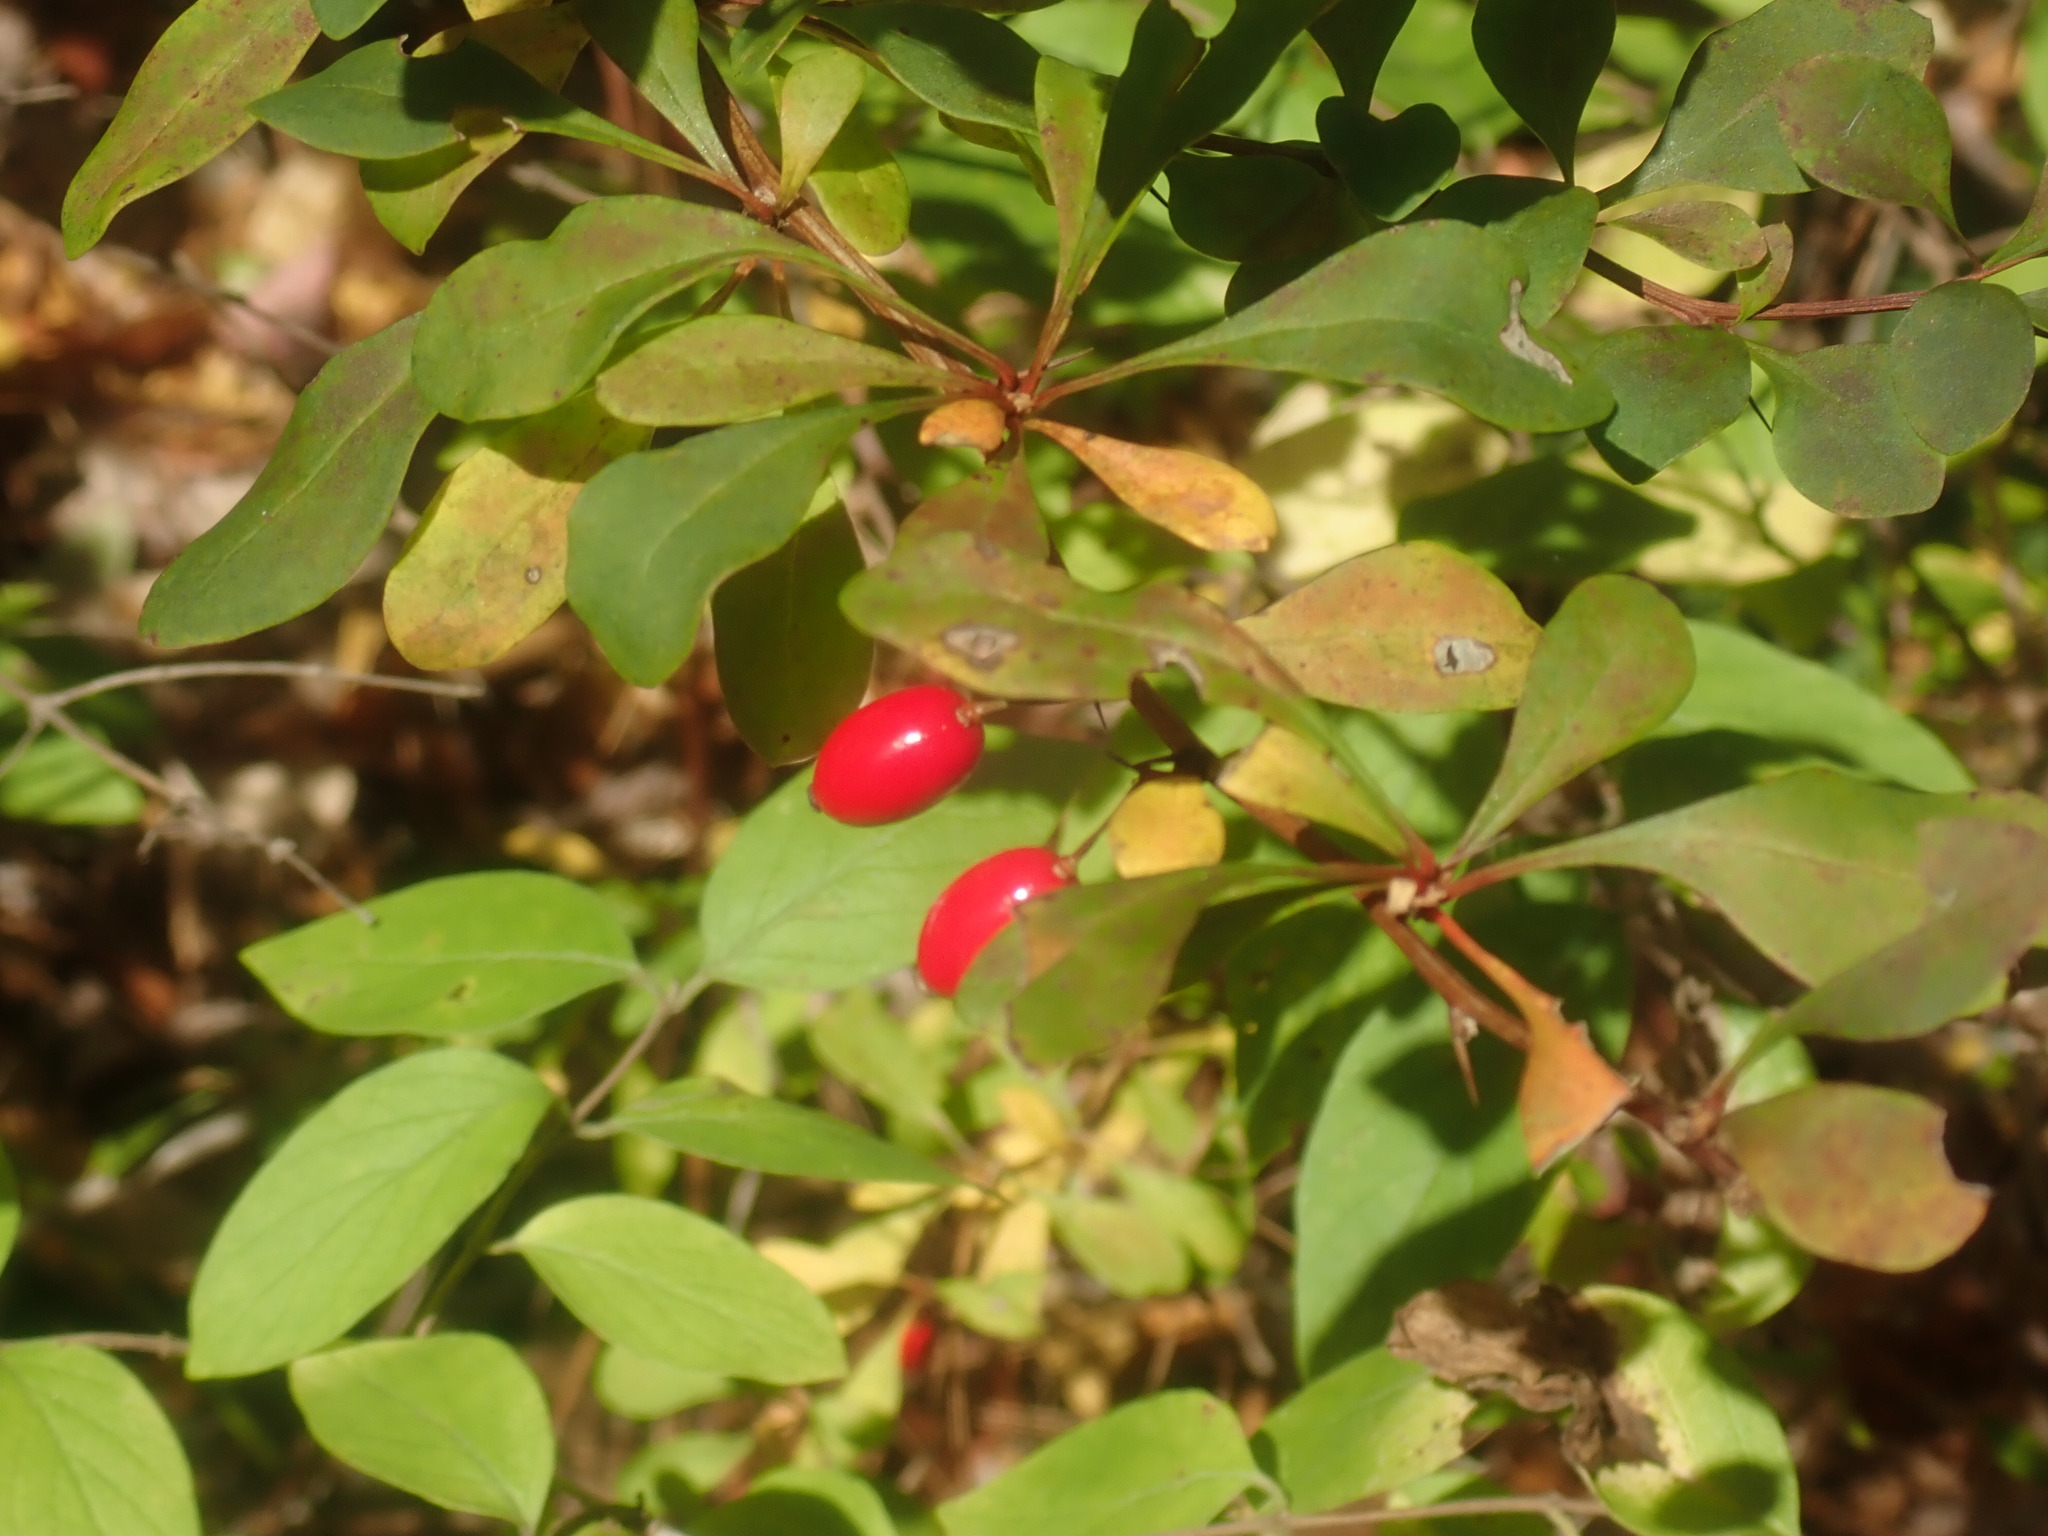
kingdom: Plantae
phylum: Tracheophyta
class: Magnoliopsida
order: Ranunculales
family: Berberidaceae
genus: Berberis
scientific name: Berberis thunbergii
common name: Japanese barberry
